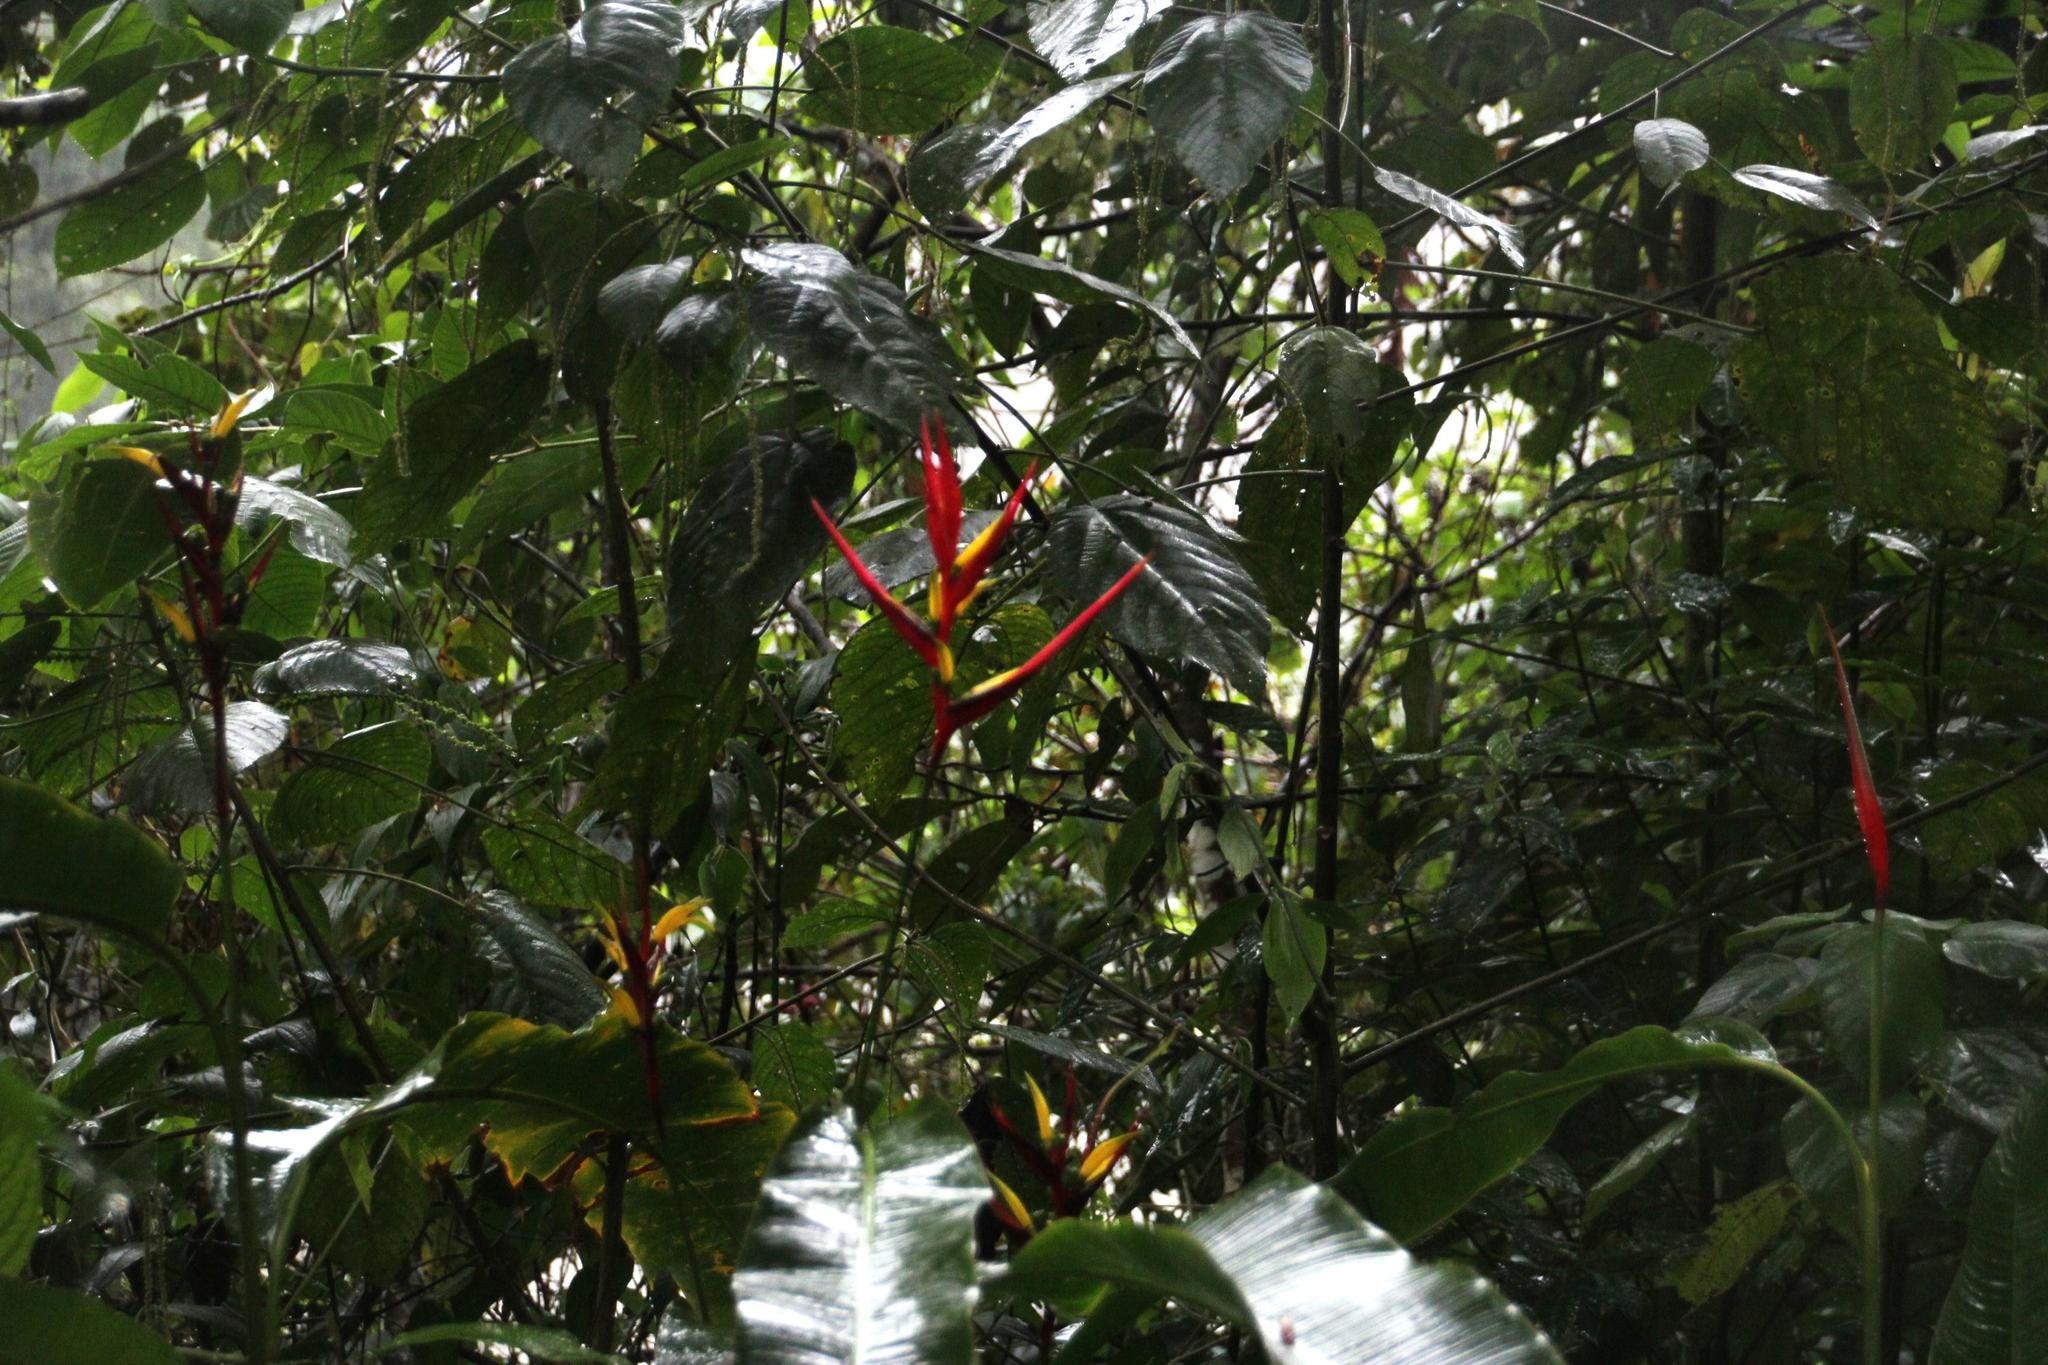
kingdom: Plantae
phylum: Tracheophyta
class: Liliopsida
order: Zingiberales
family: Heliconiaceae
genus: Heliconia
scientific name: Heliconia subulata
